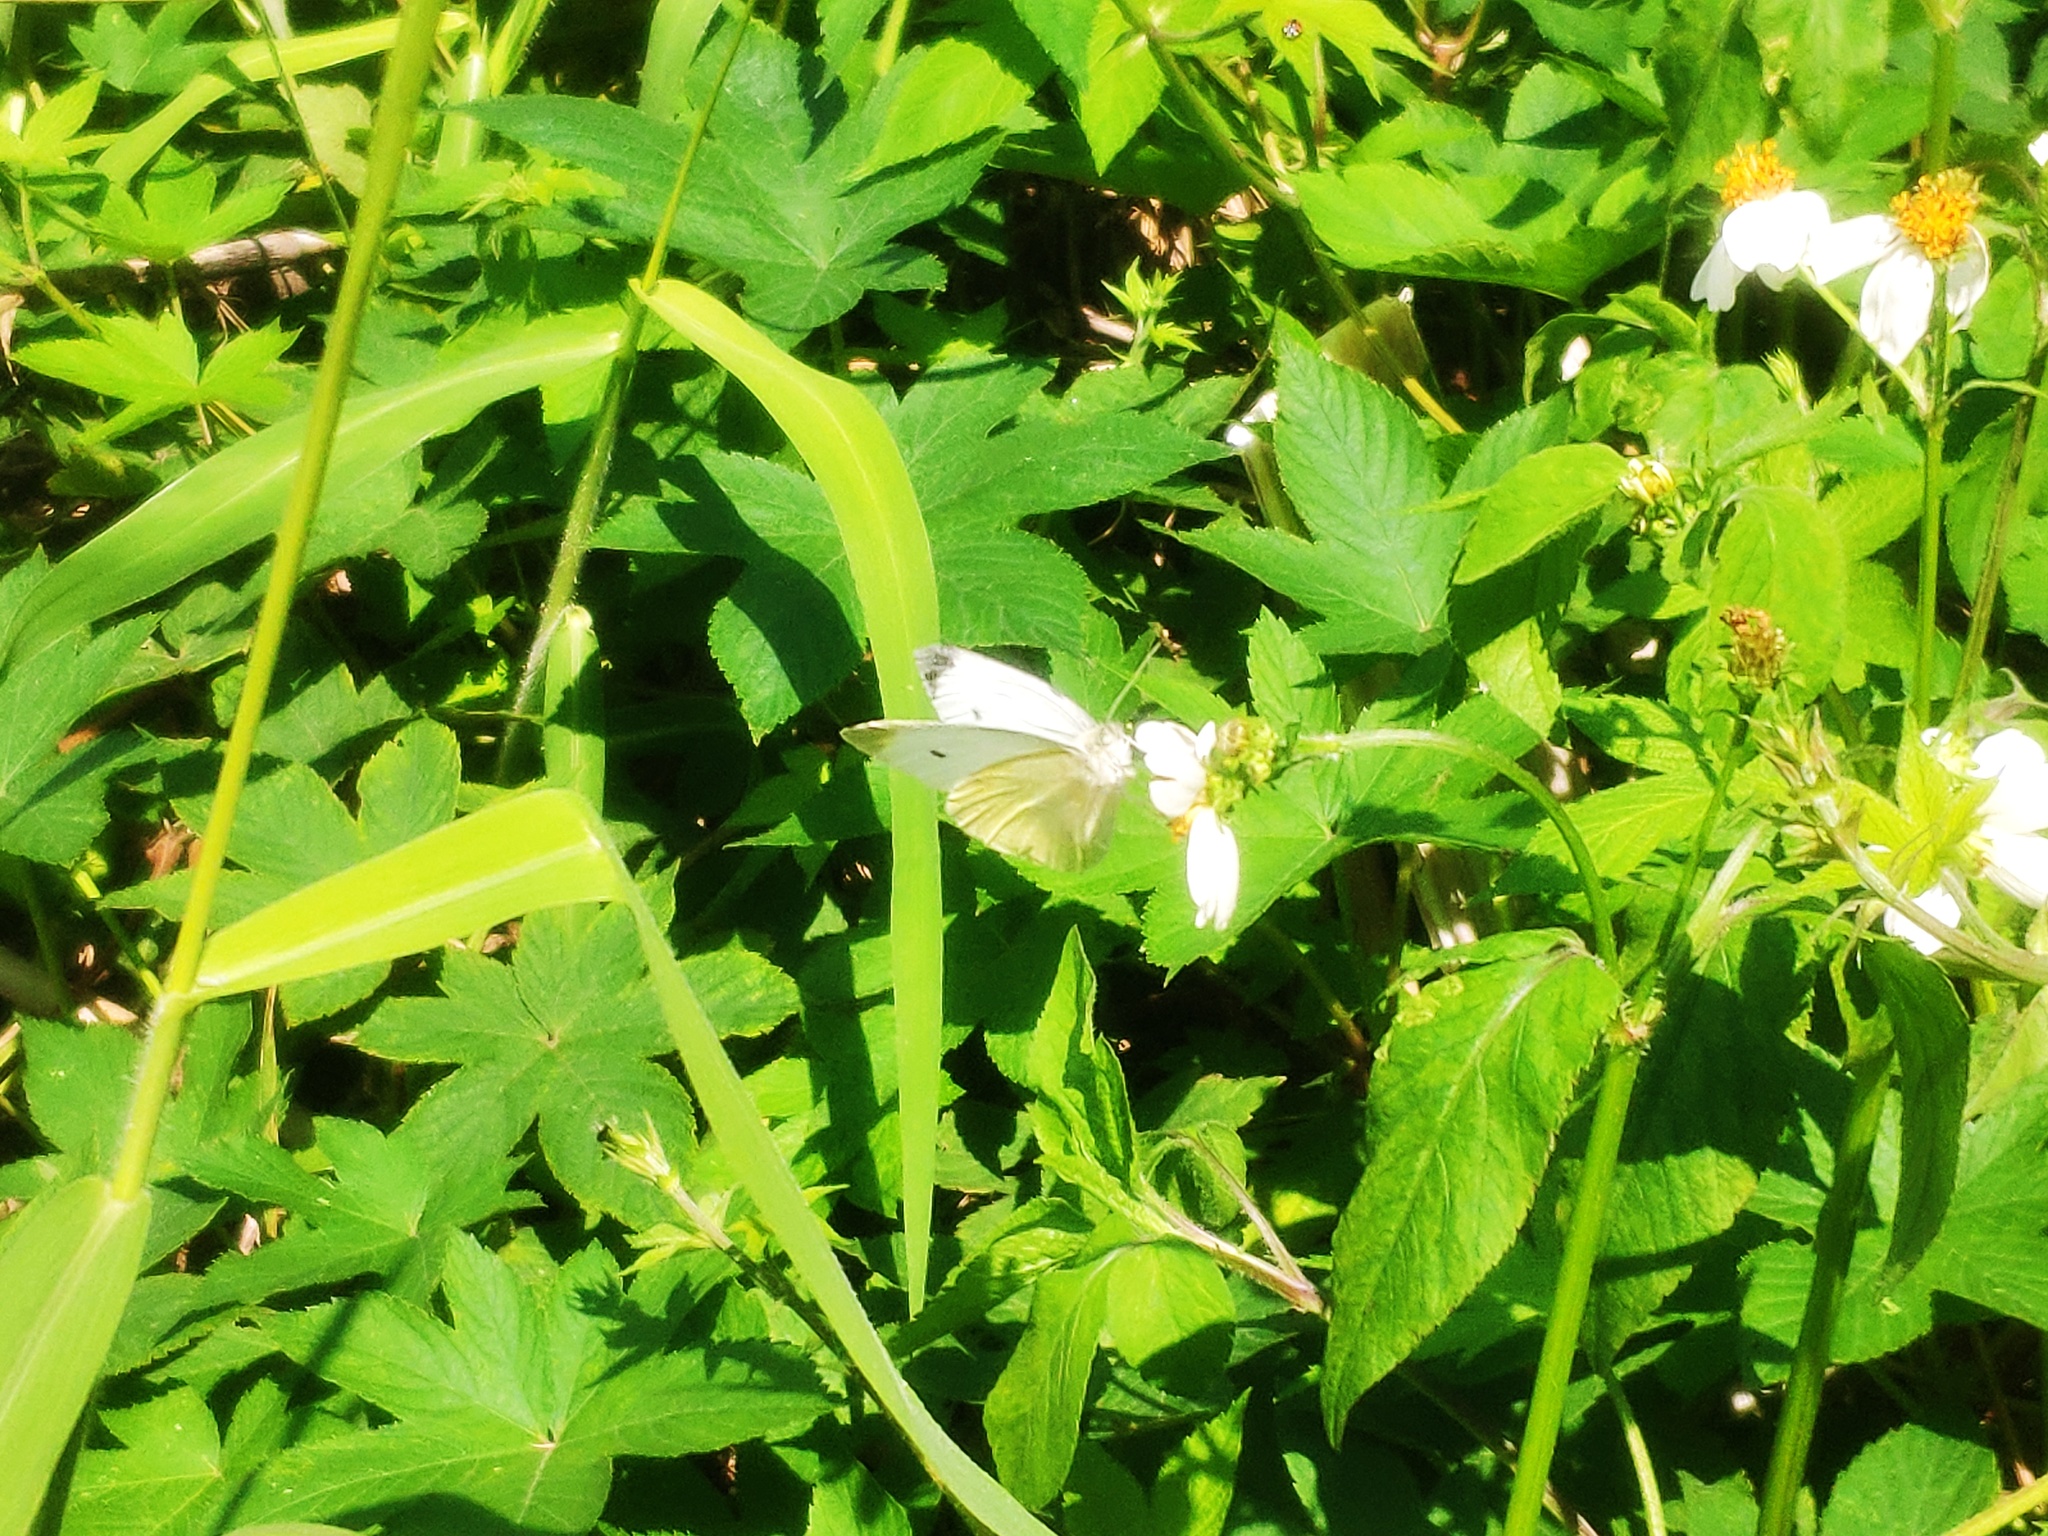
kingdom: Animalia
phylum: Arthropoda
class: Insecta
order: Lepidoptera
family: Pieridae
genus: Pieris
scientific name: Pieris rapae
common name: Small white
